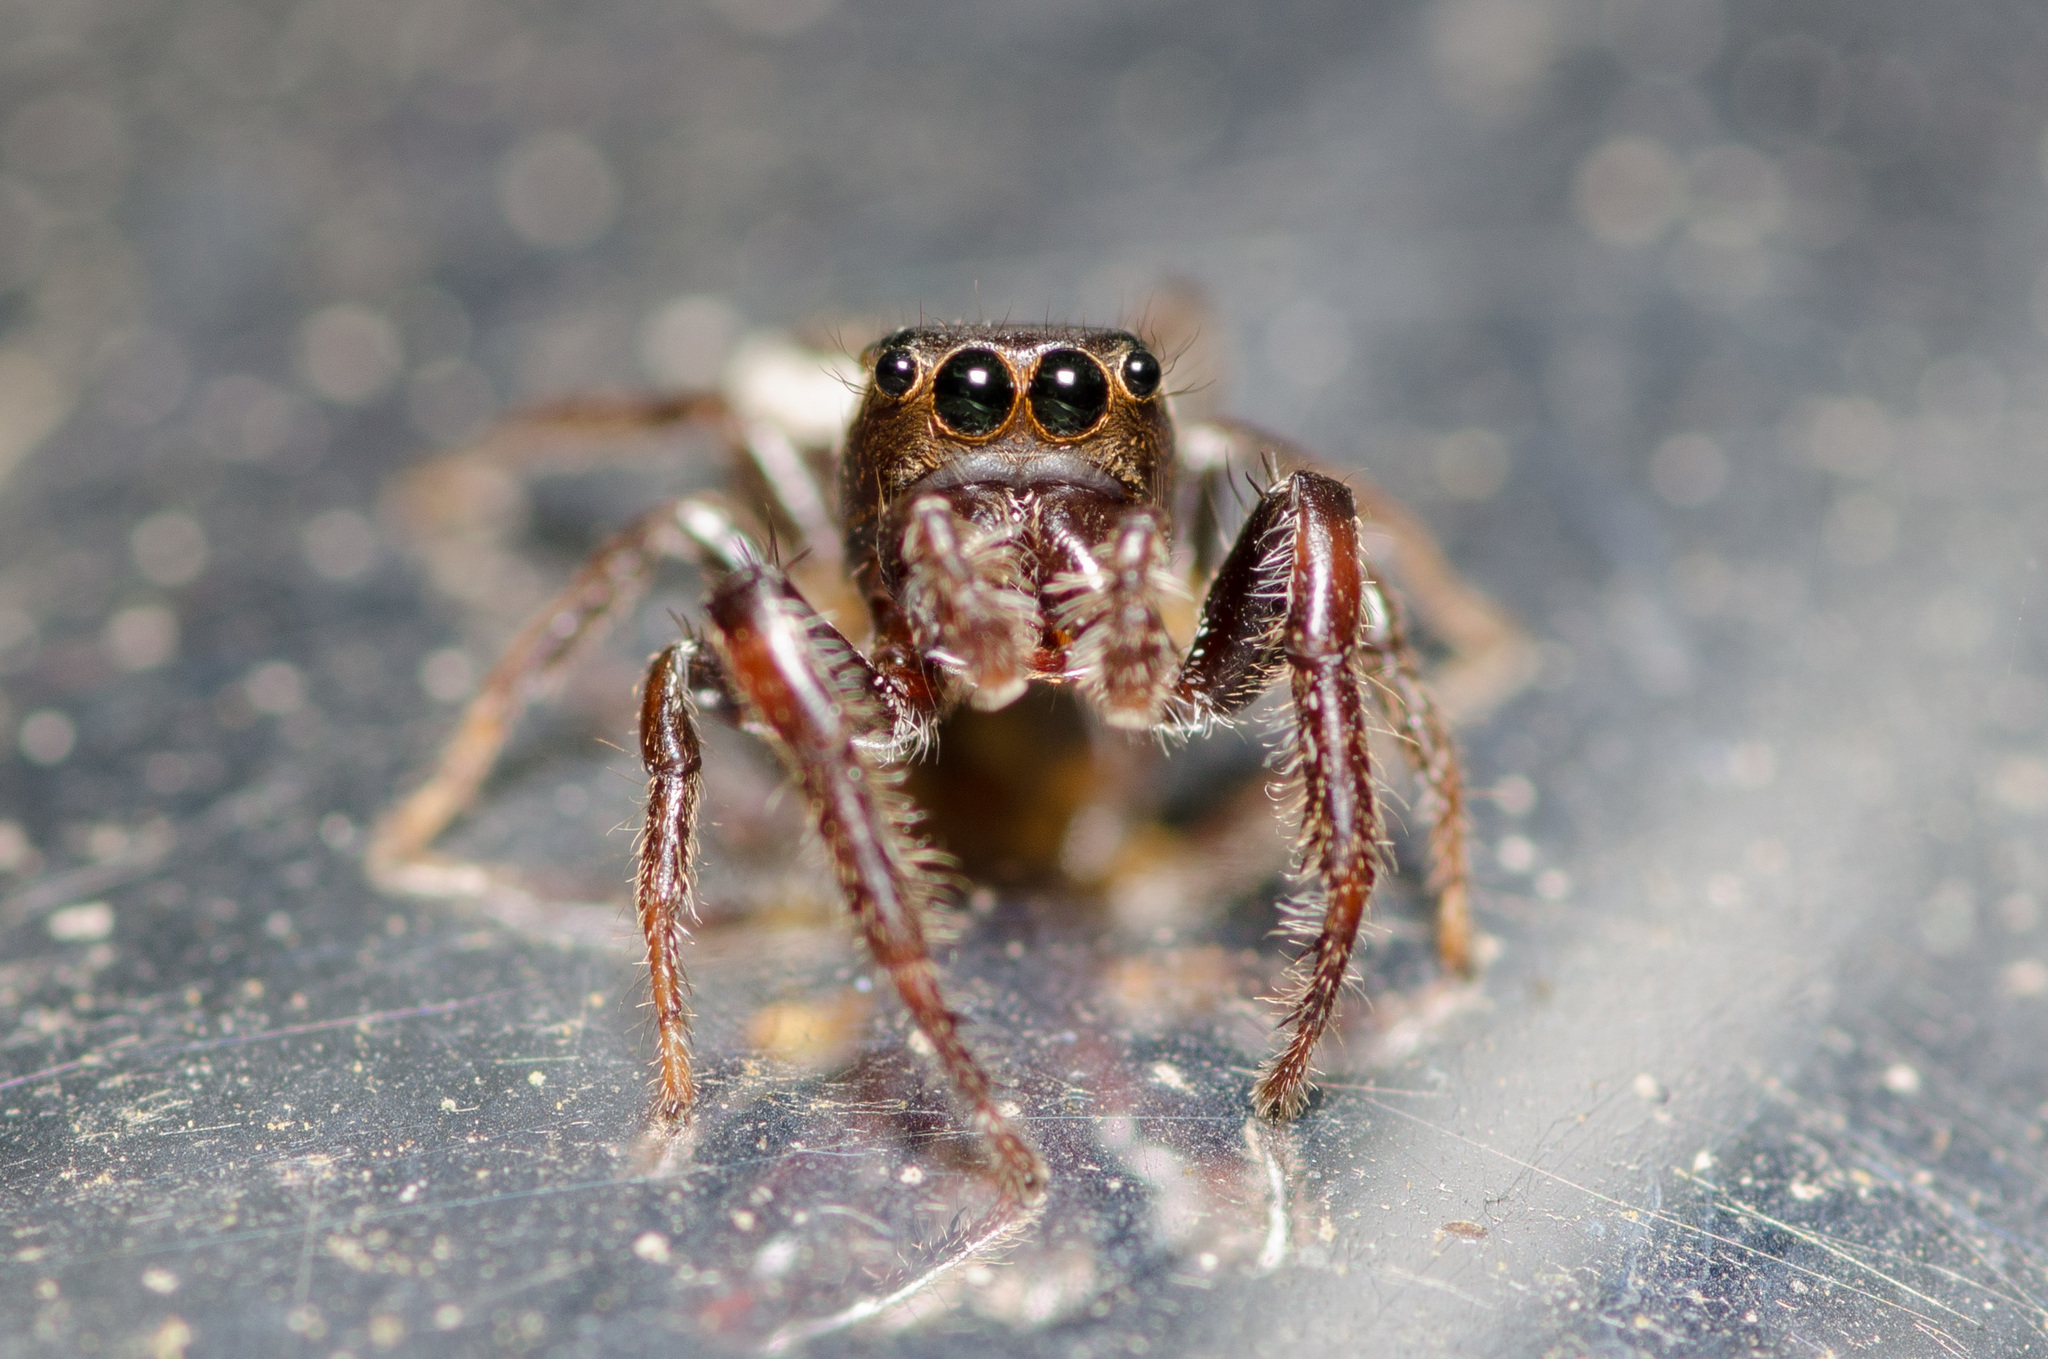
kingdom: Animalia
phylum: Arthropoda
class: Arachnida
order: Araneae
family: Salticidae
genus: Eris
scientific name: Eris militaris
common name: Bronze jumper
